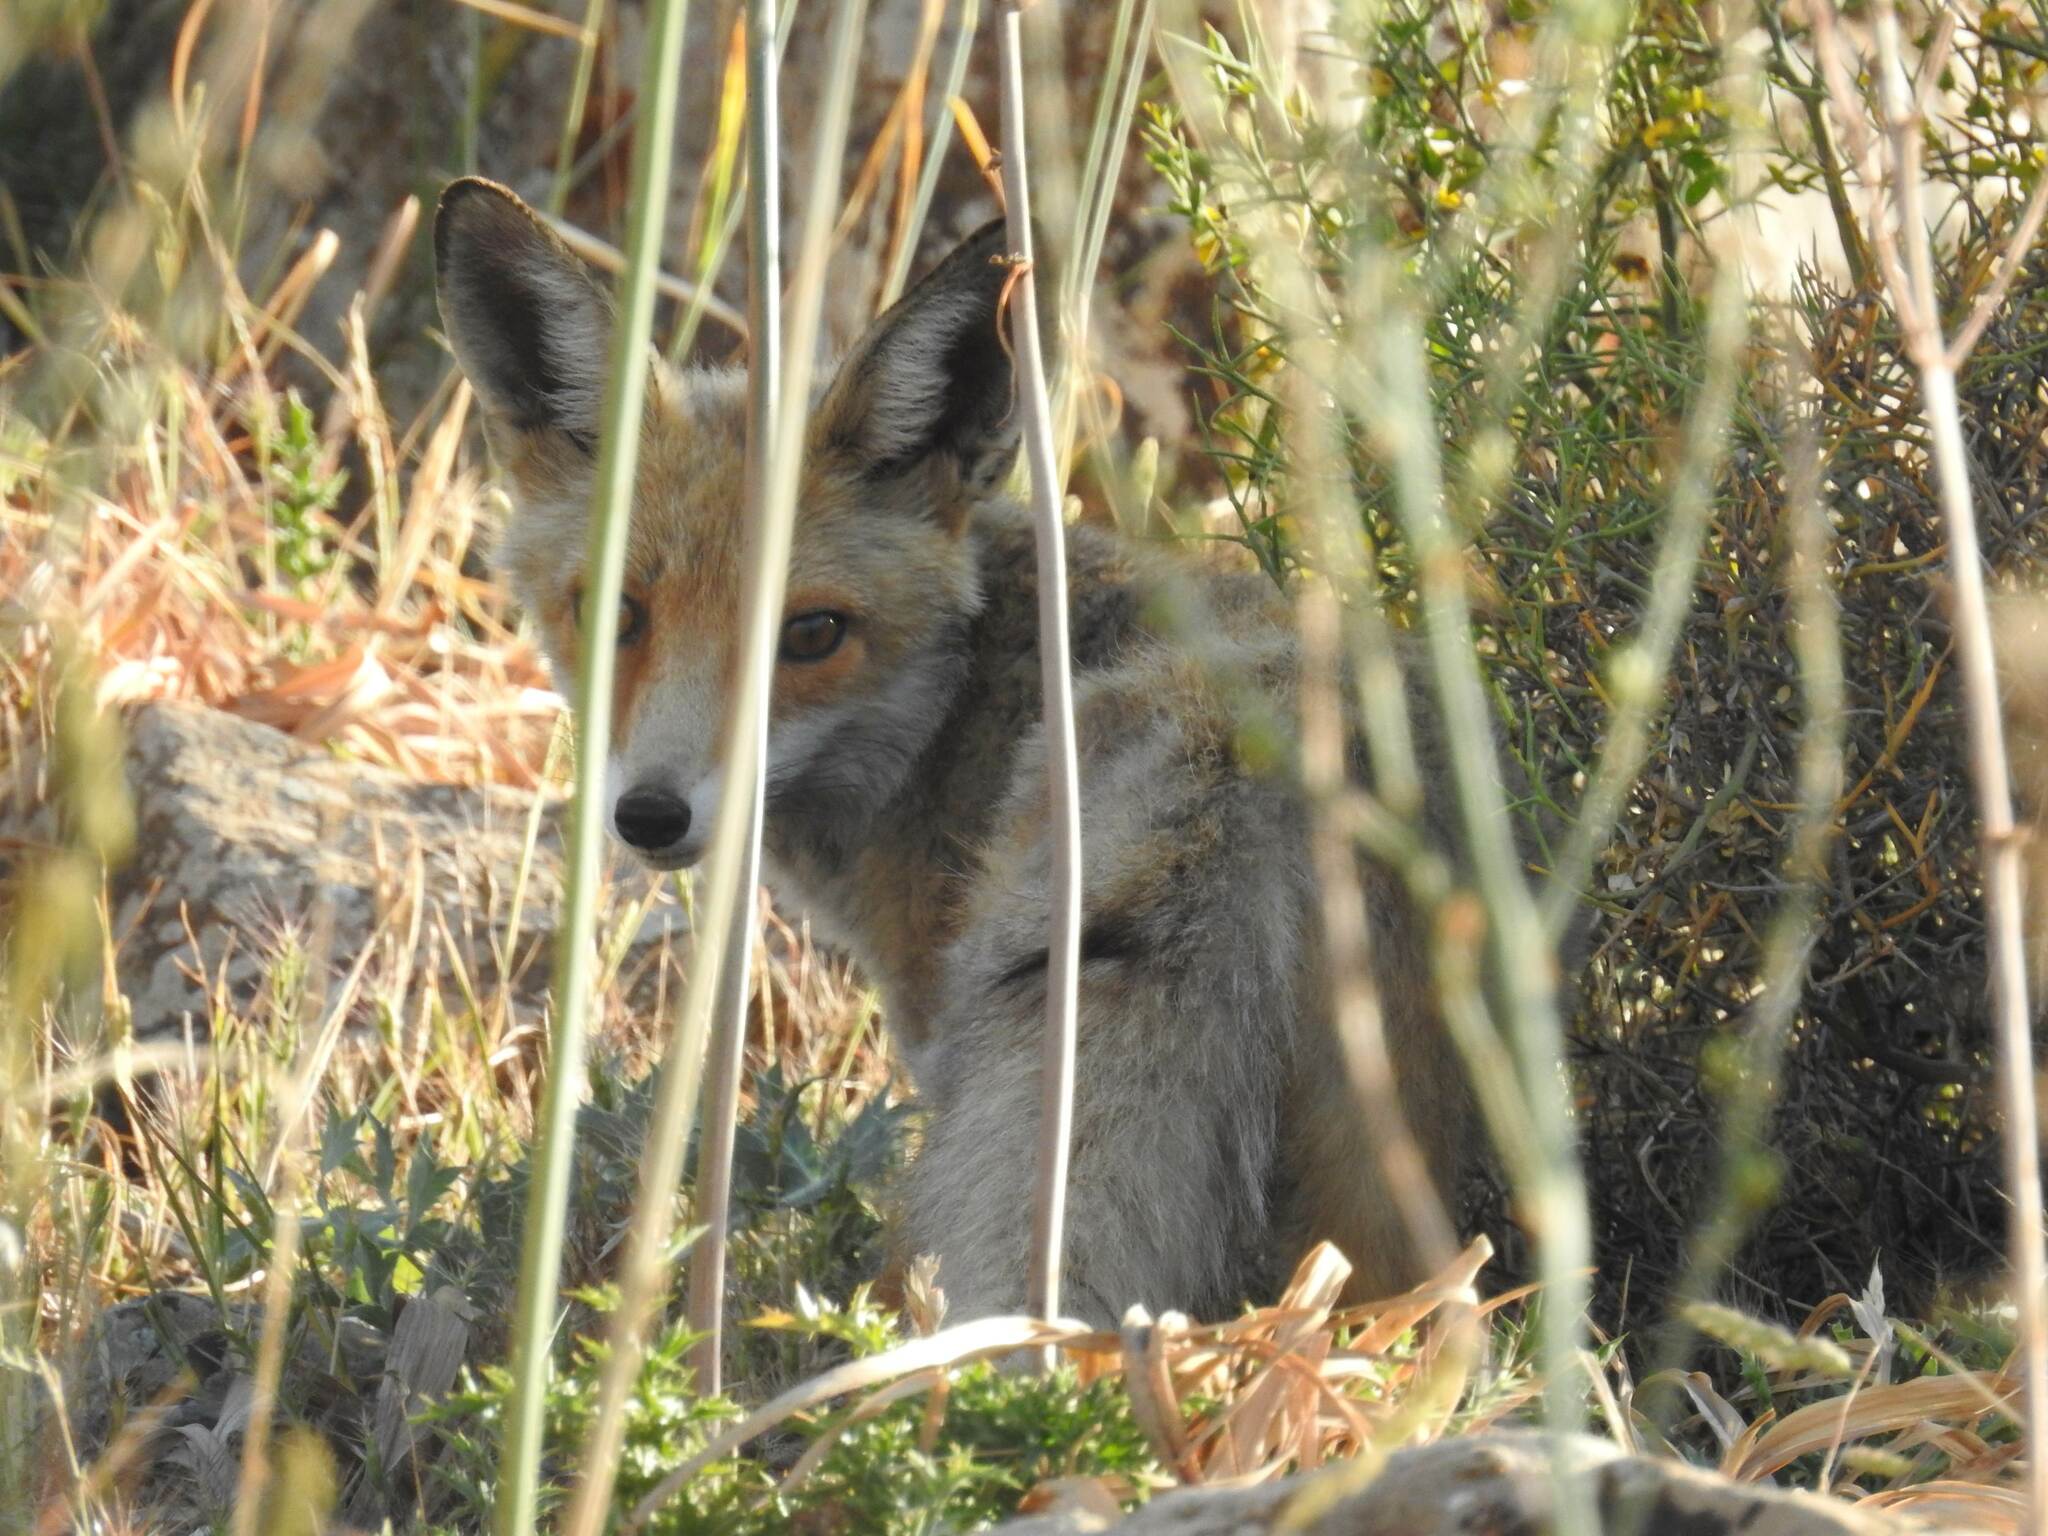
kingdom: Animalia
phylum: Chordata
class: Mammalia
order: Carnivora
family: Canidae
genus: Vulpes
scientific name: Vulpes vulpes
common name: Red fox
